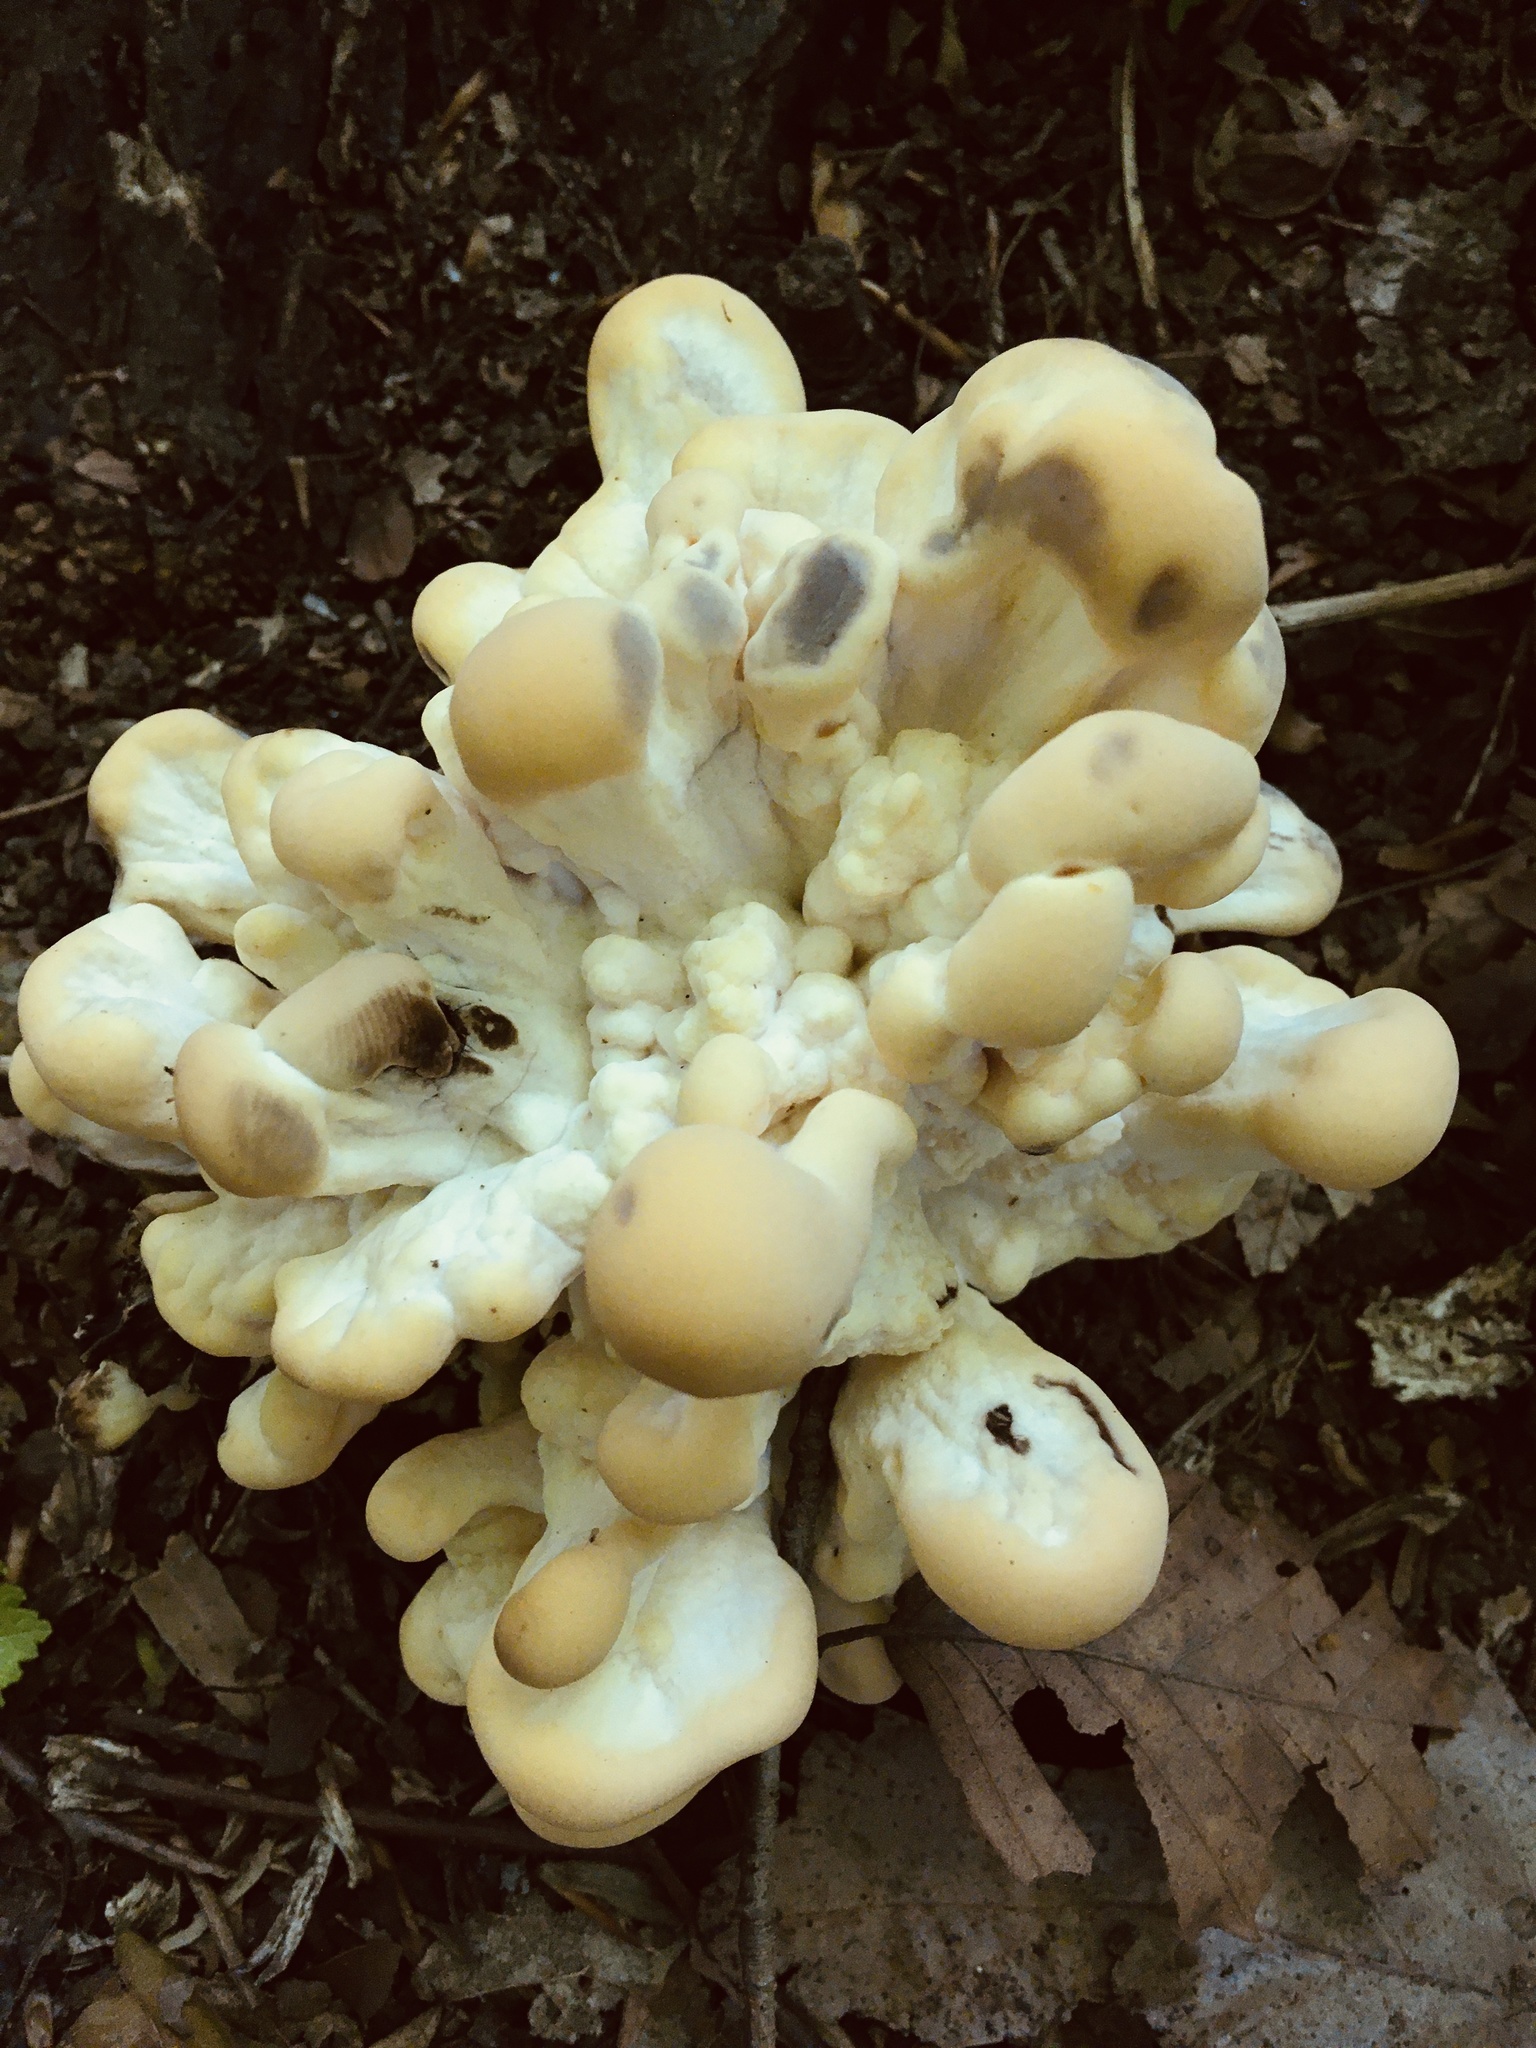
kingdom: Fungi
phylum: Basidiomycota
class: Agaricomycetes
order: Polyporales
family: Meripilaceae
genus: Meripilus
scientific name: Meripilus sumstinei
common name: Black-staining polypore
